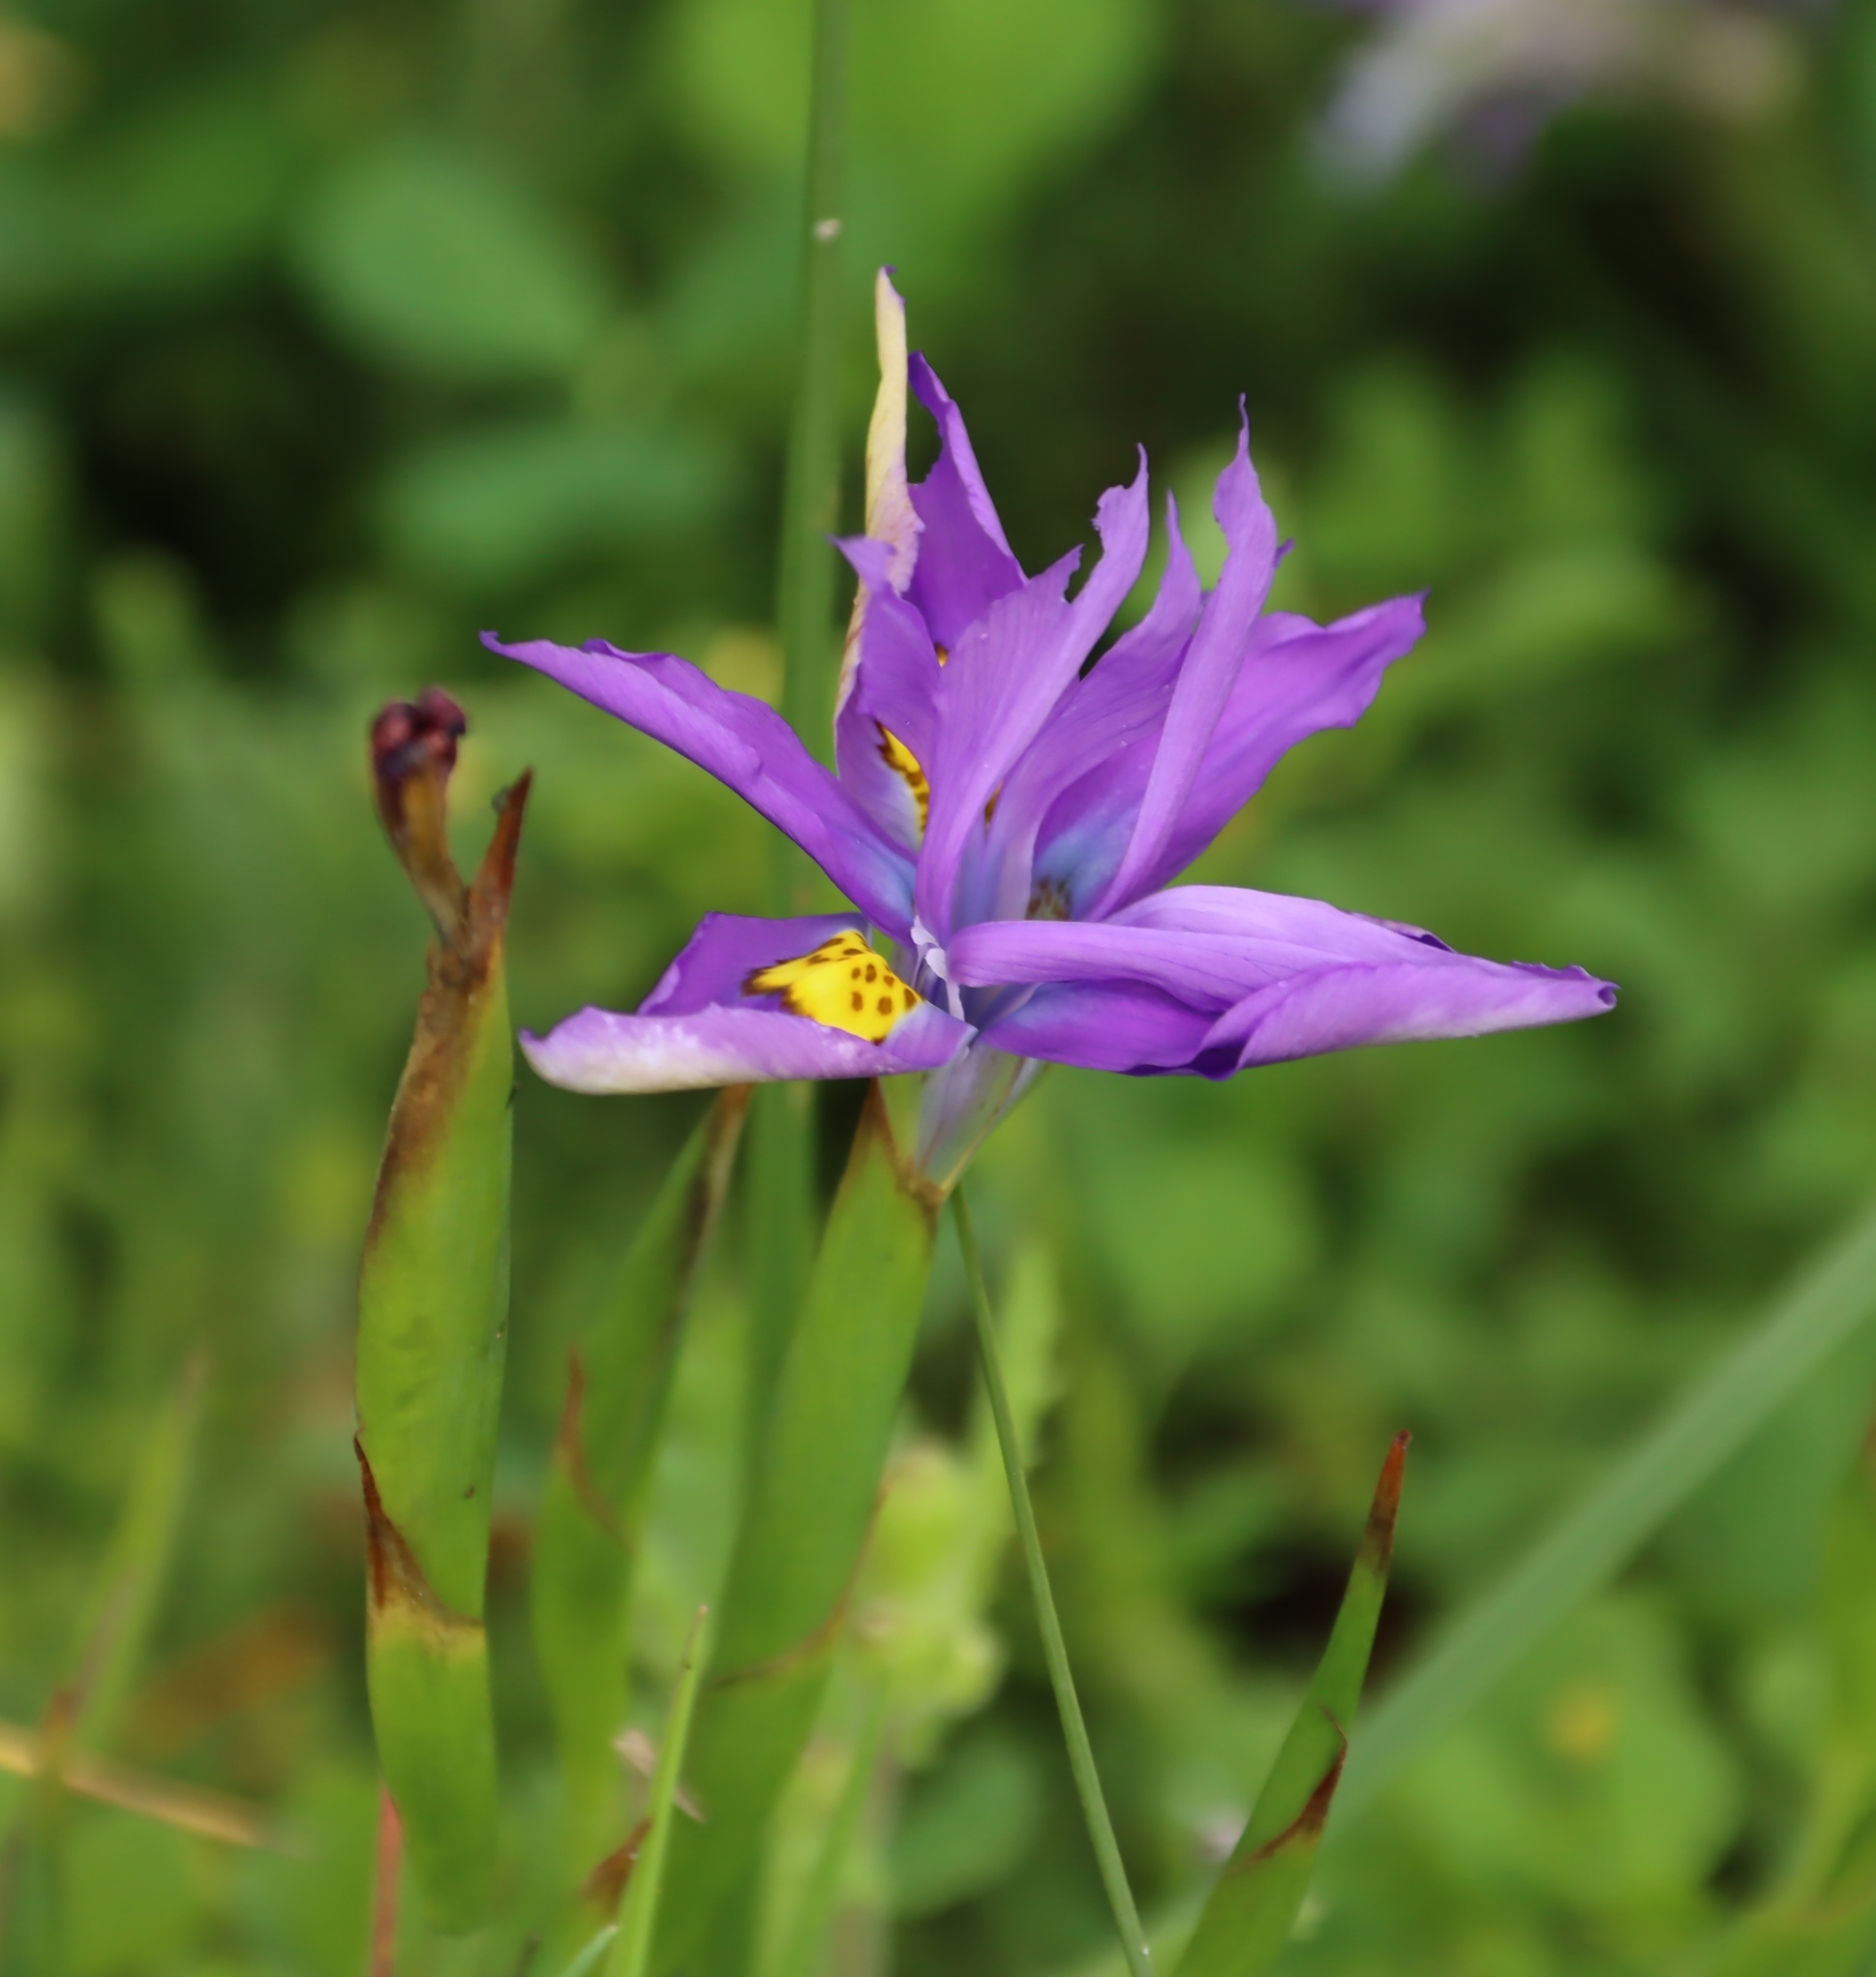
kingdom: Plantae
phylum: Tracheophyta
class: Liliopsida
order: Asparagales
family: Iridaceae
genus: Moraea
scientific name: Moraea fugax
